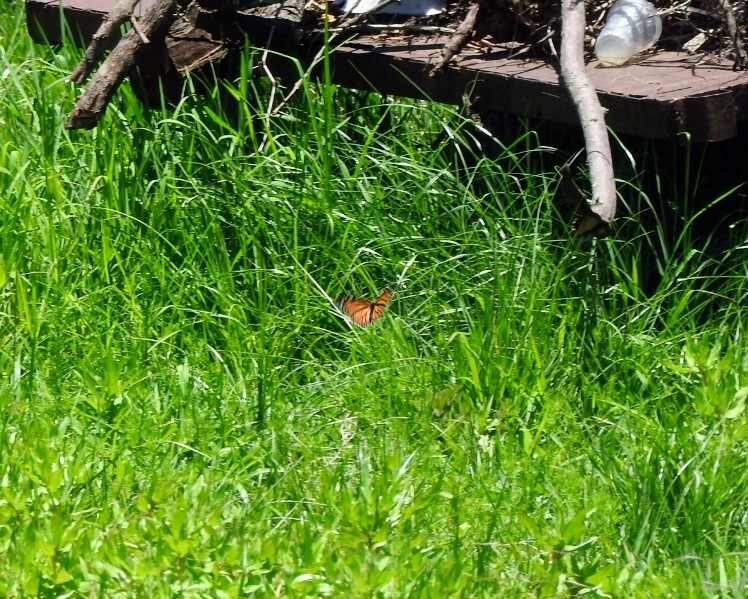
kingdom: Animalia
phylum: Arthropoda
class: Insecta
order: Lepidoptera
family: Nymphalidae
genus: Danaus
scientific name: Danaus plexippus
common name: Monarch
